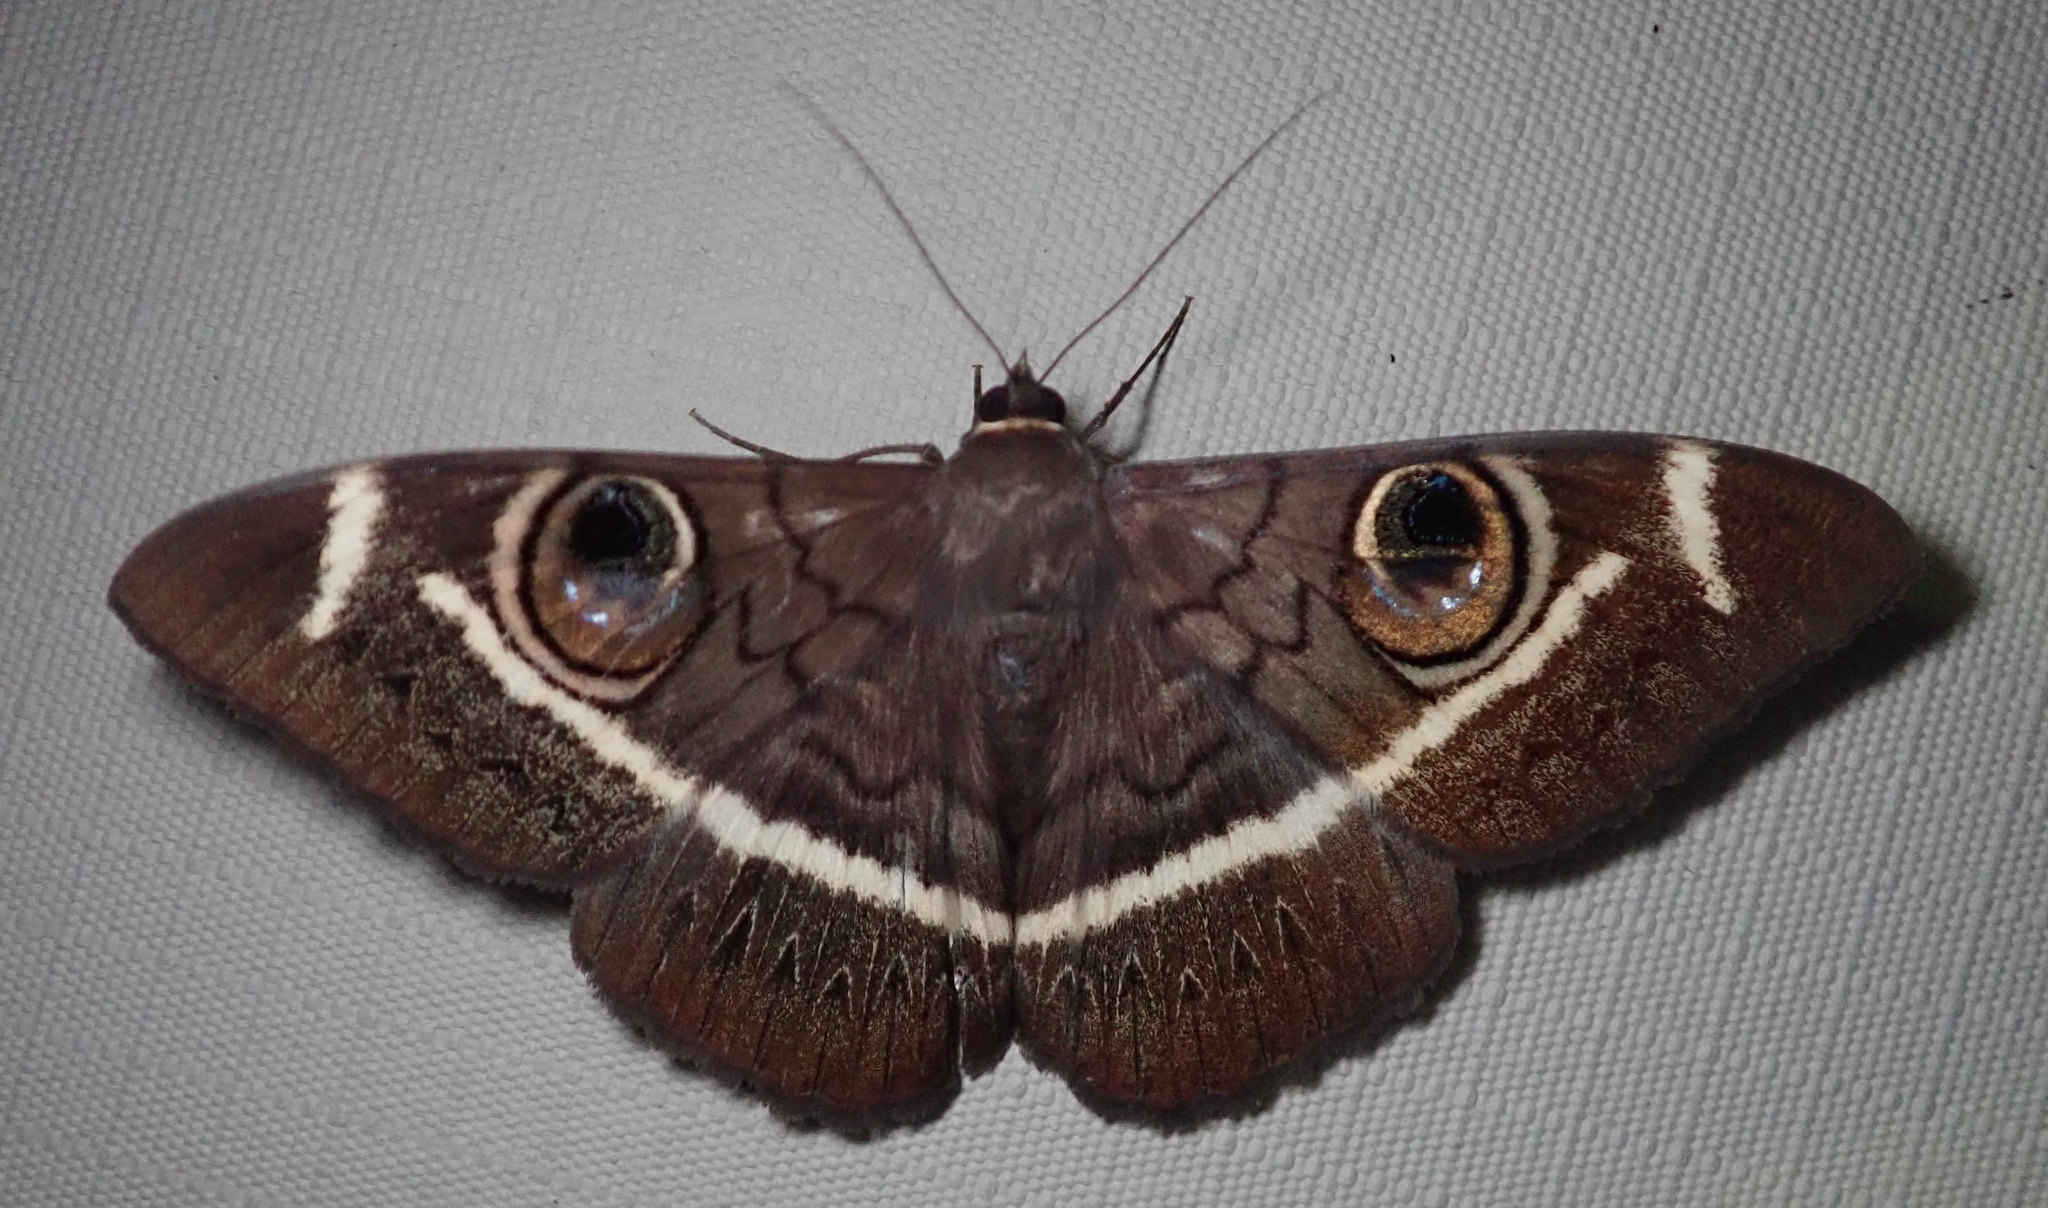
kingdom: Animalia
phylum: Arthropoda
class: Insecta
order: Lepidoptera
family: Erebidae
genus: Cyligramma
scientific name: Cyligramma latona
